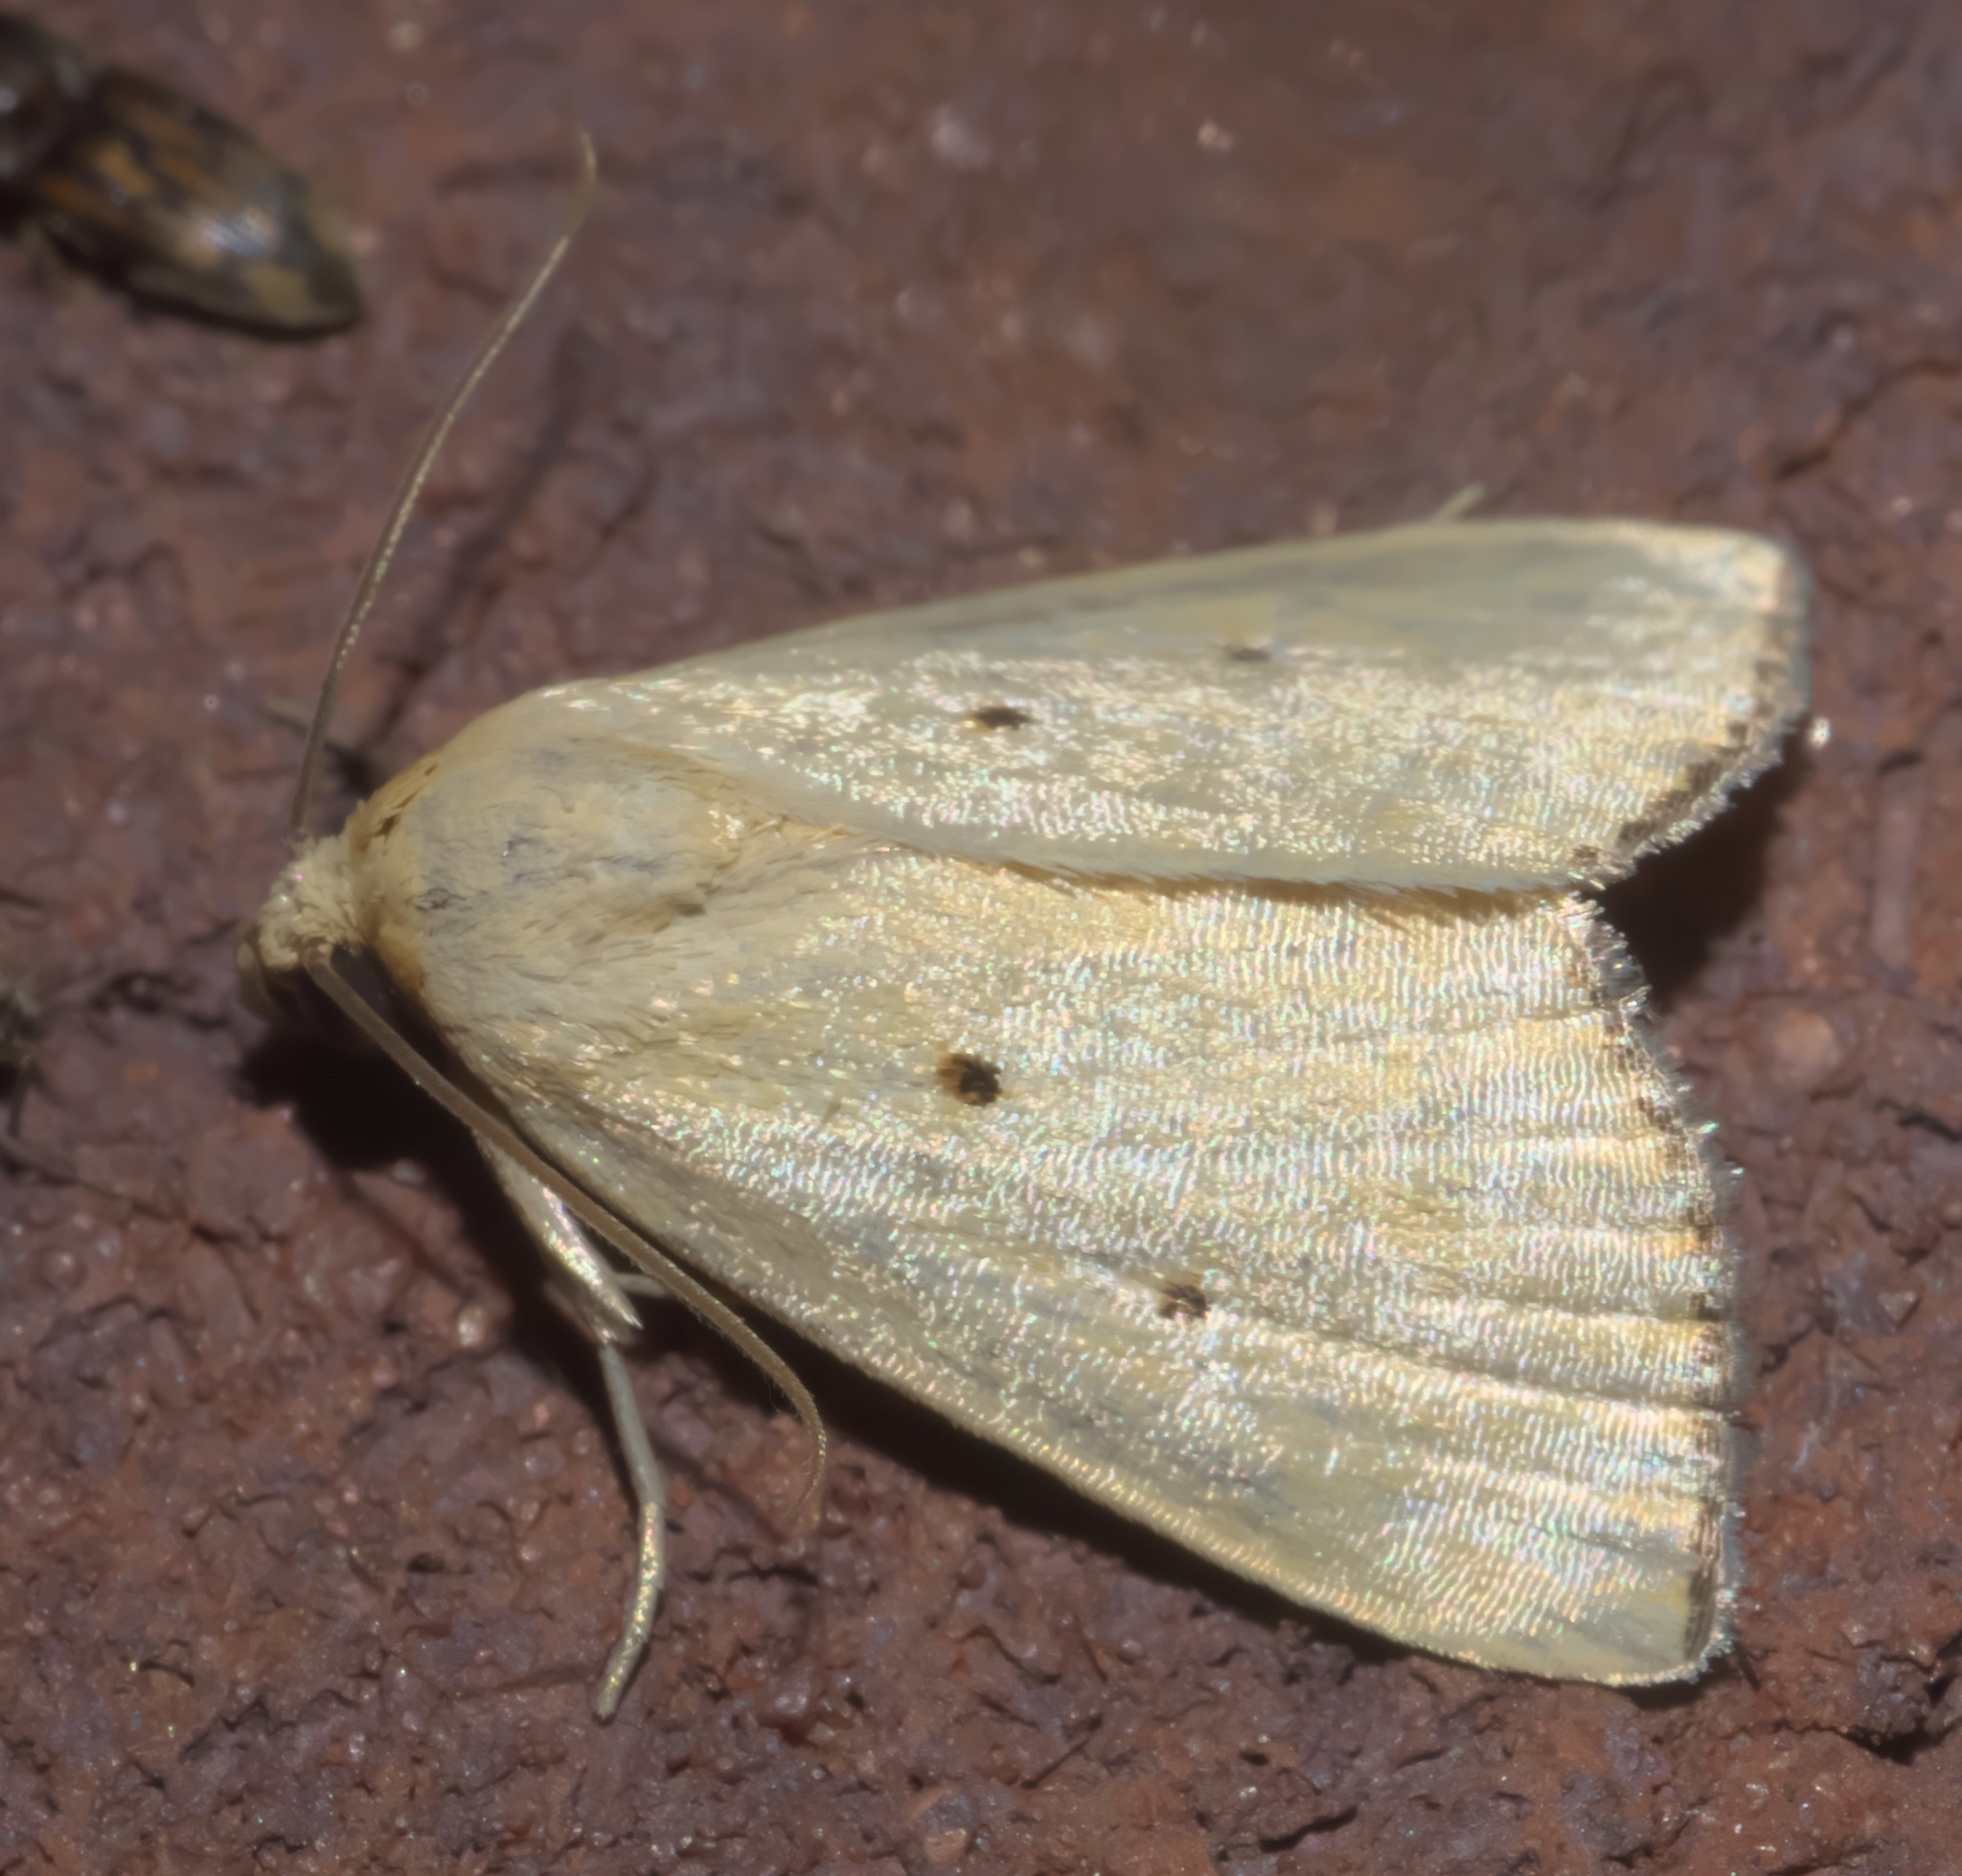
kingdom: Animalia
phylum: Arthropoda
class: Insecta
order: Lepidoptera
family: Noctuidae
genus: Marimatha
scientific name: Marimatha nigrofimbria
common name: Black-bordered lemon moth
